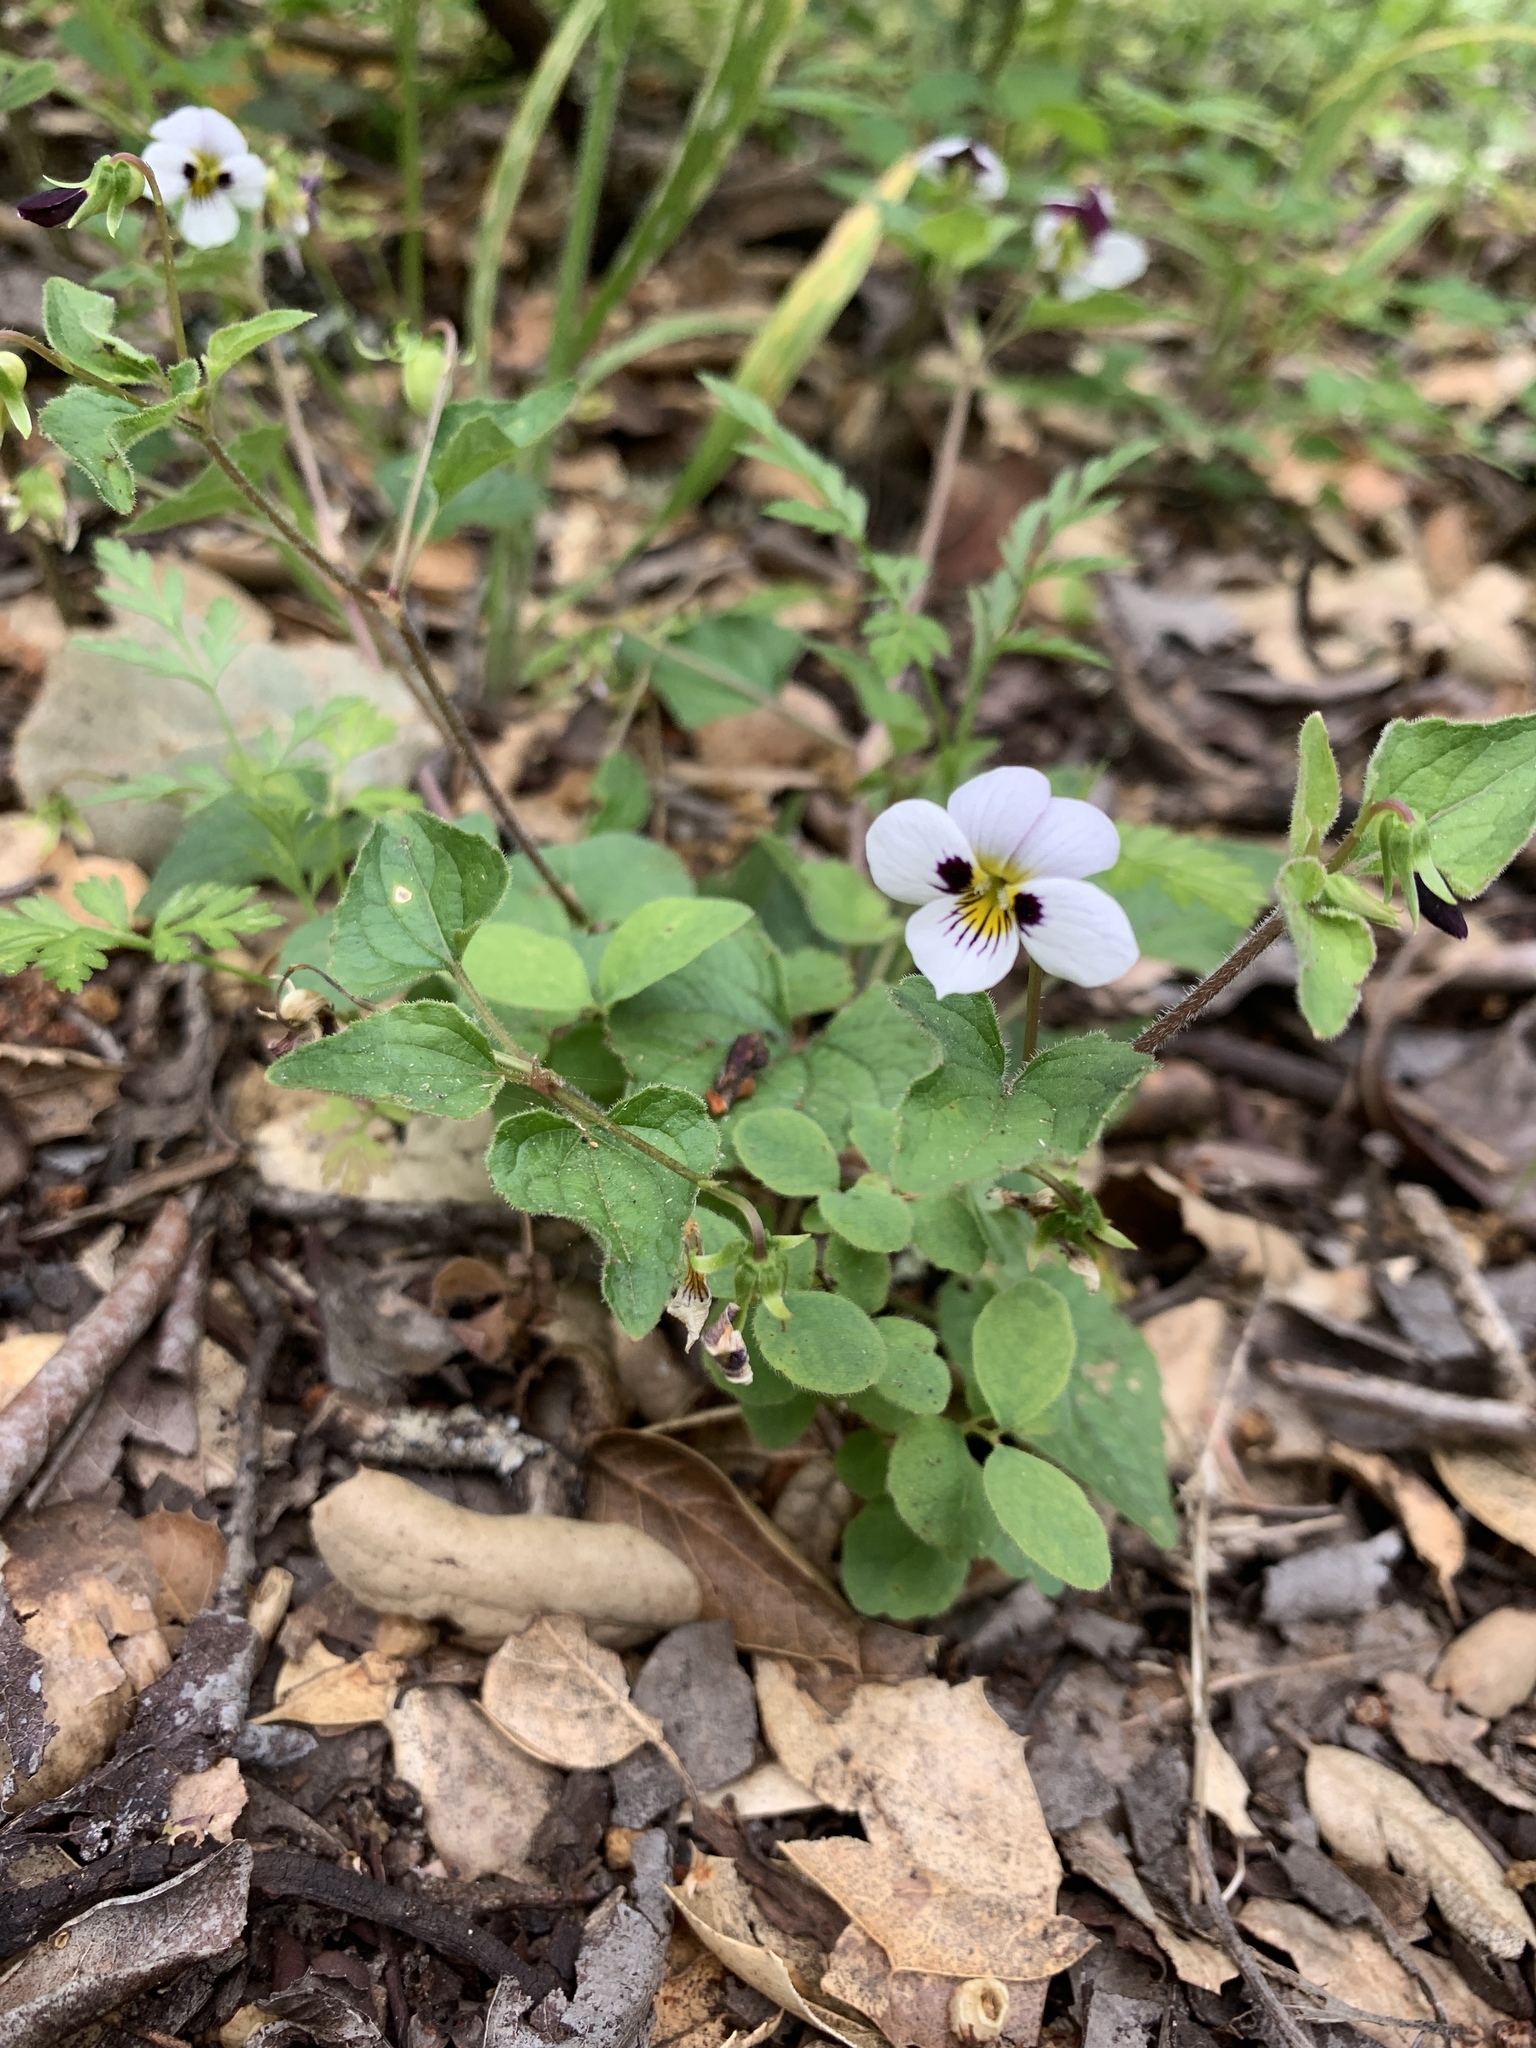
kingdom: Plantae
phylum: Tracheophyta
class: Magnoliopsida
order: Malpighiales
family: Violaceae
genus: Viola
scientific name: Viola ocellata
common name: Western heart's ease
